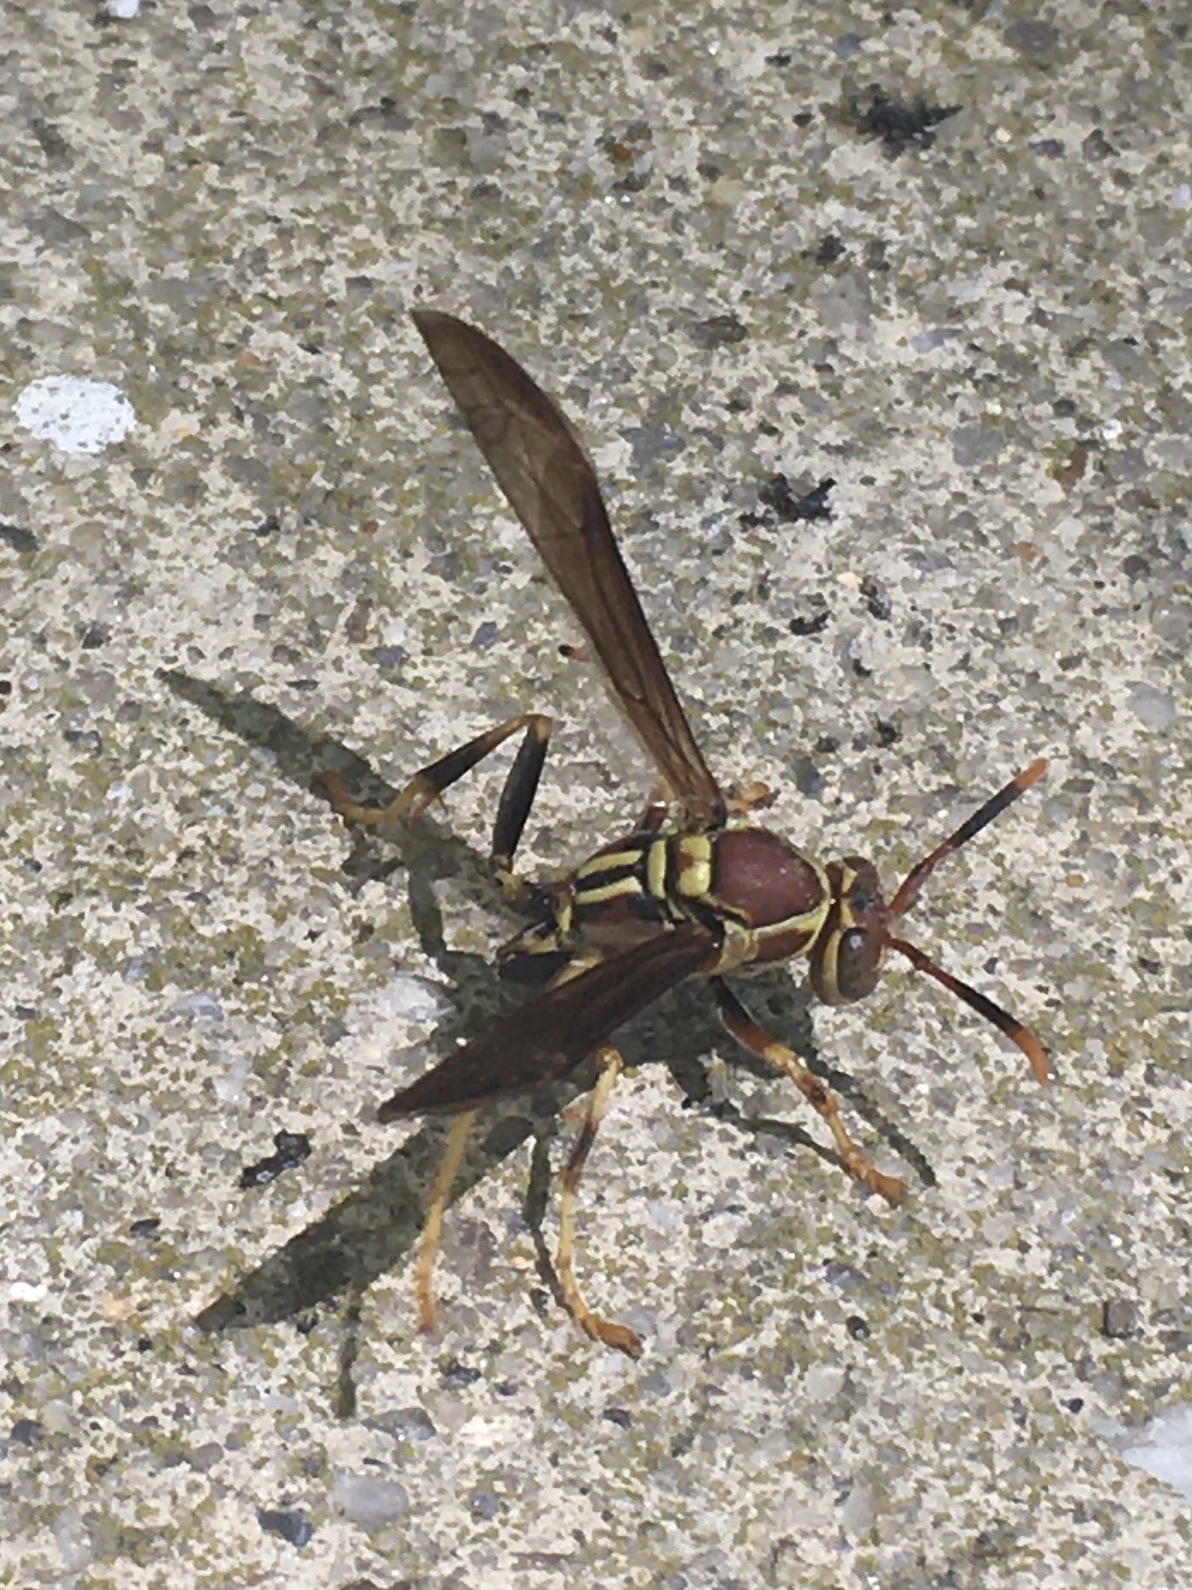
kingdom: Animalia
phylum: Arthropoda
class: Insecta
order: Hymenoptera
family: Eumenidae
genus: Polistes
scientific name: Polistes exclamans
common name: Paper wasp
